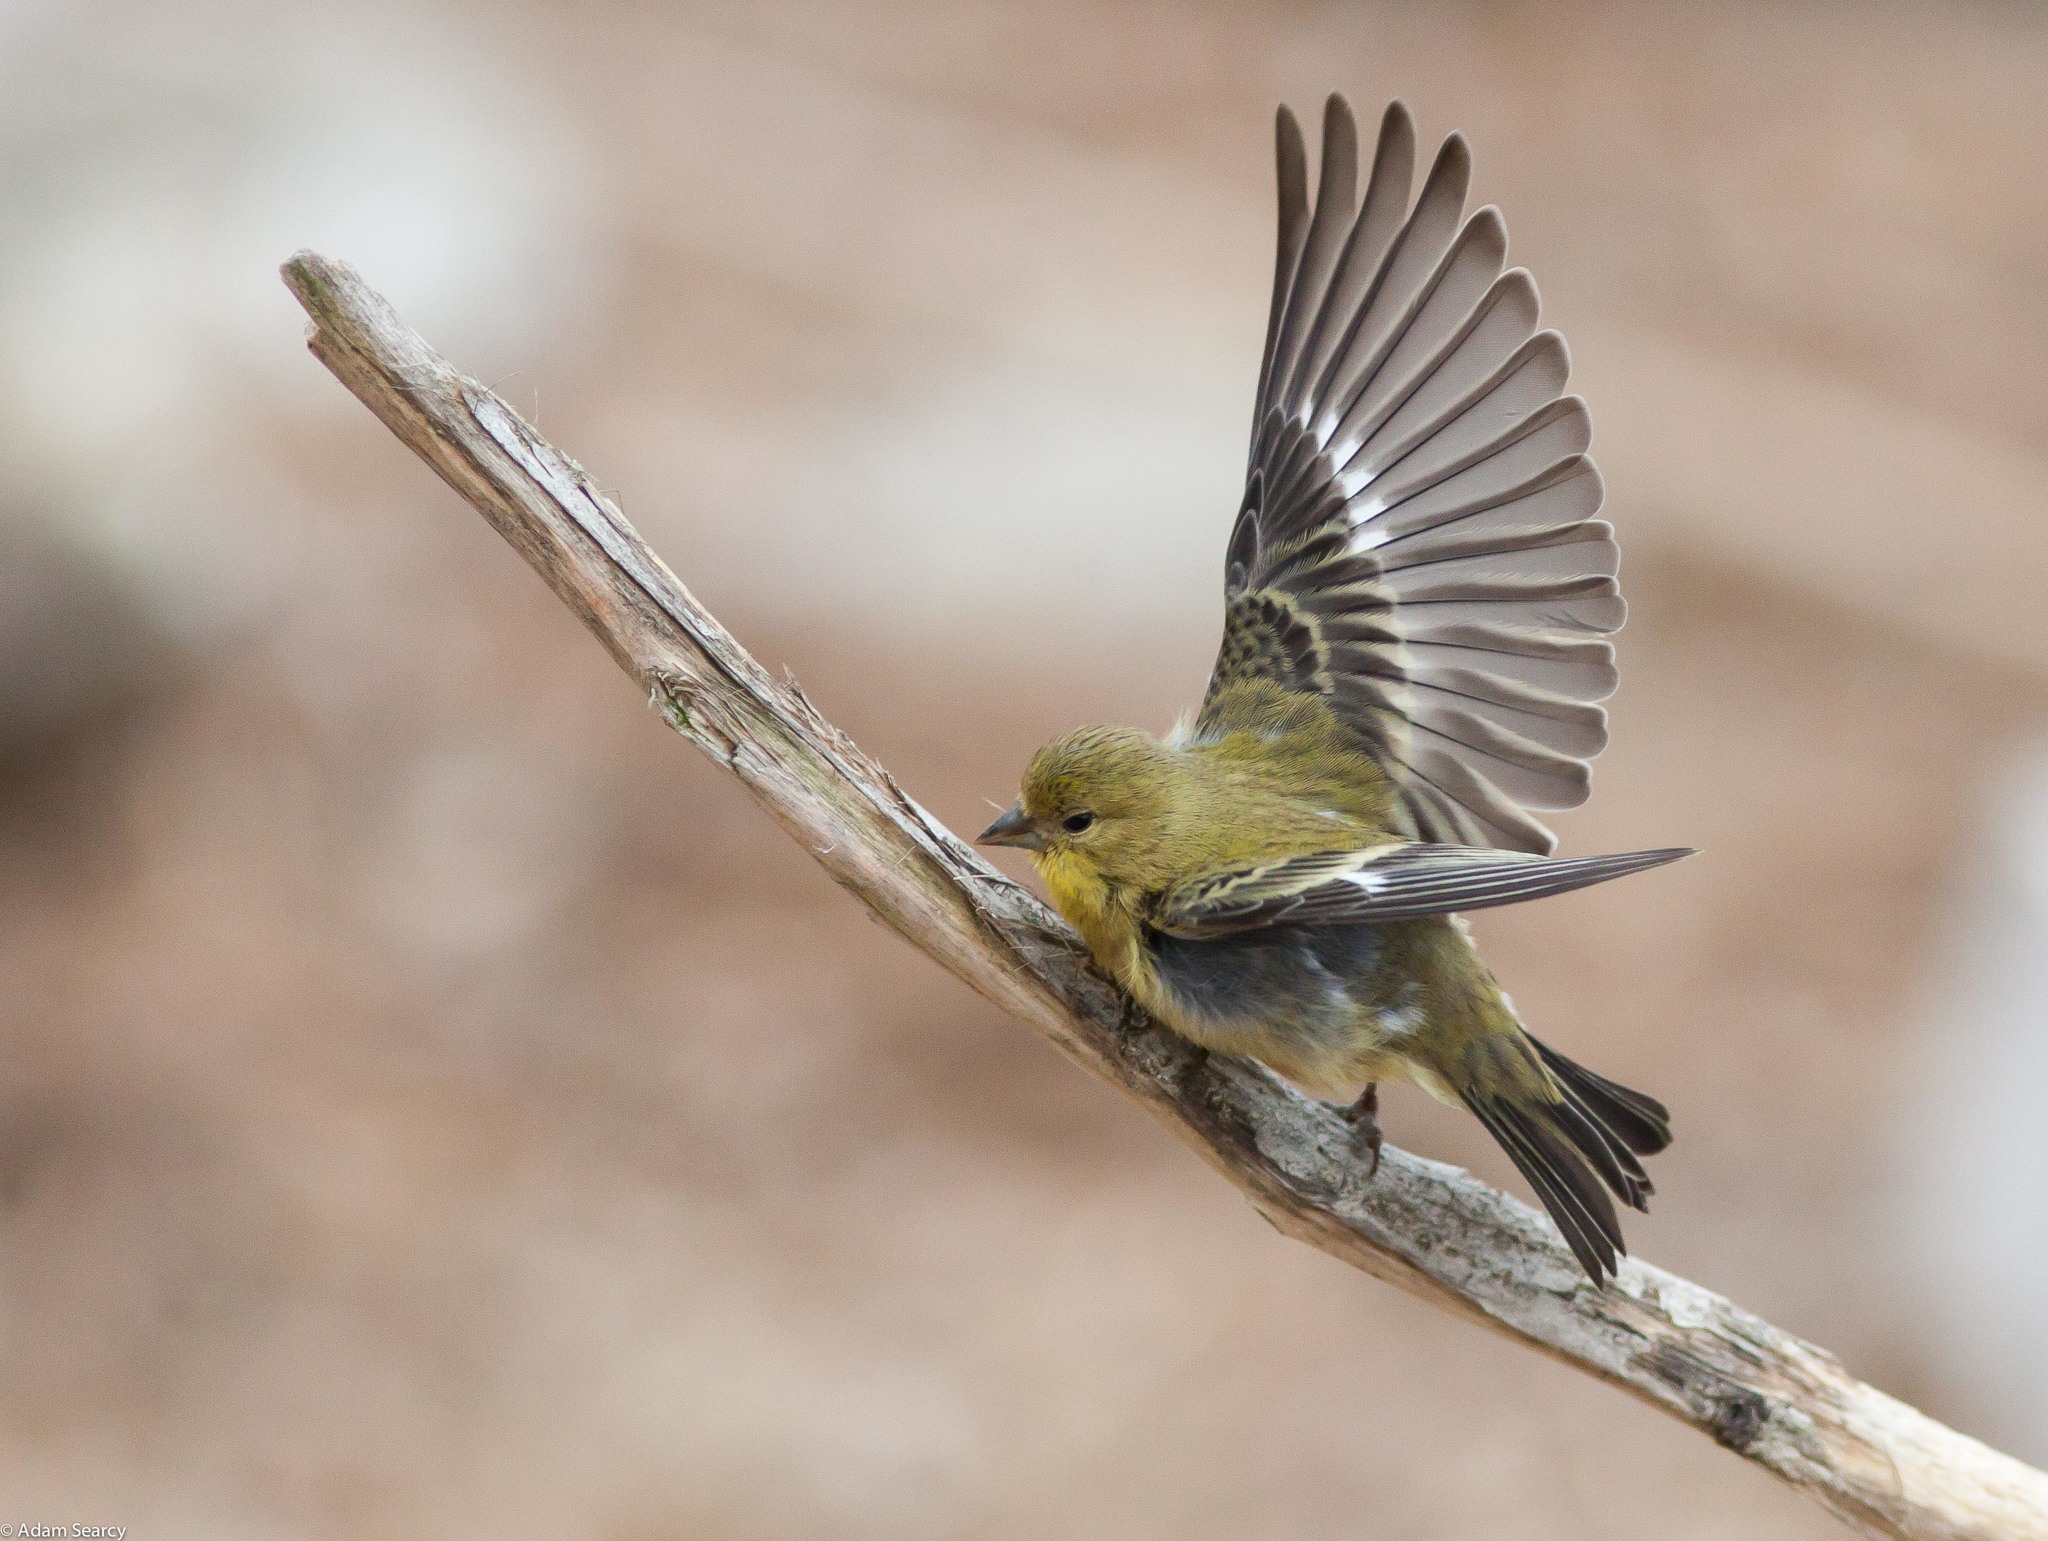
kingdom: Animalia
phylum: Chordata
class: Aves
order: Passeriformes
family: Fringillidae
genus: Spinus
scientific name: Spinus psaltria
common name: Lesser goldfinch
